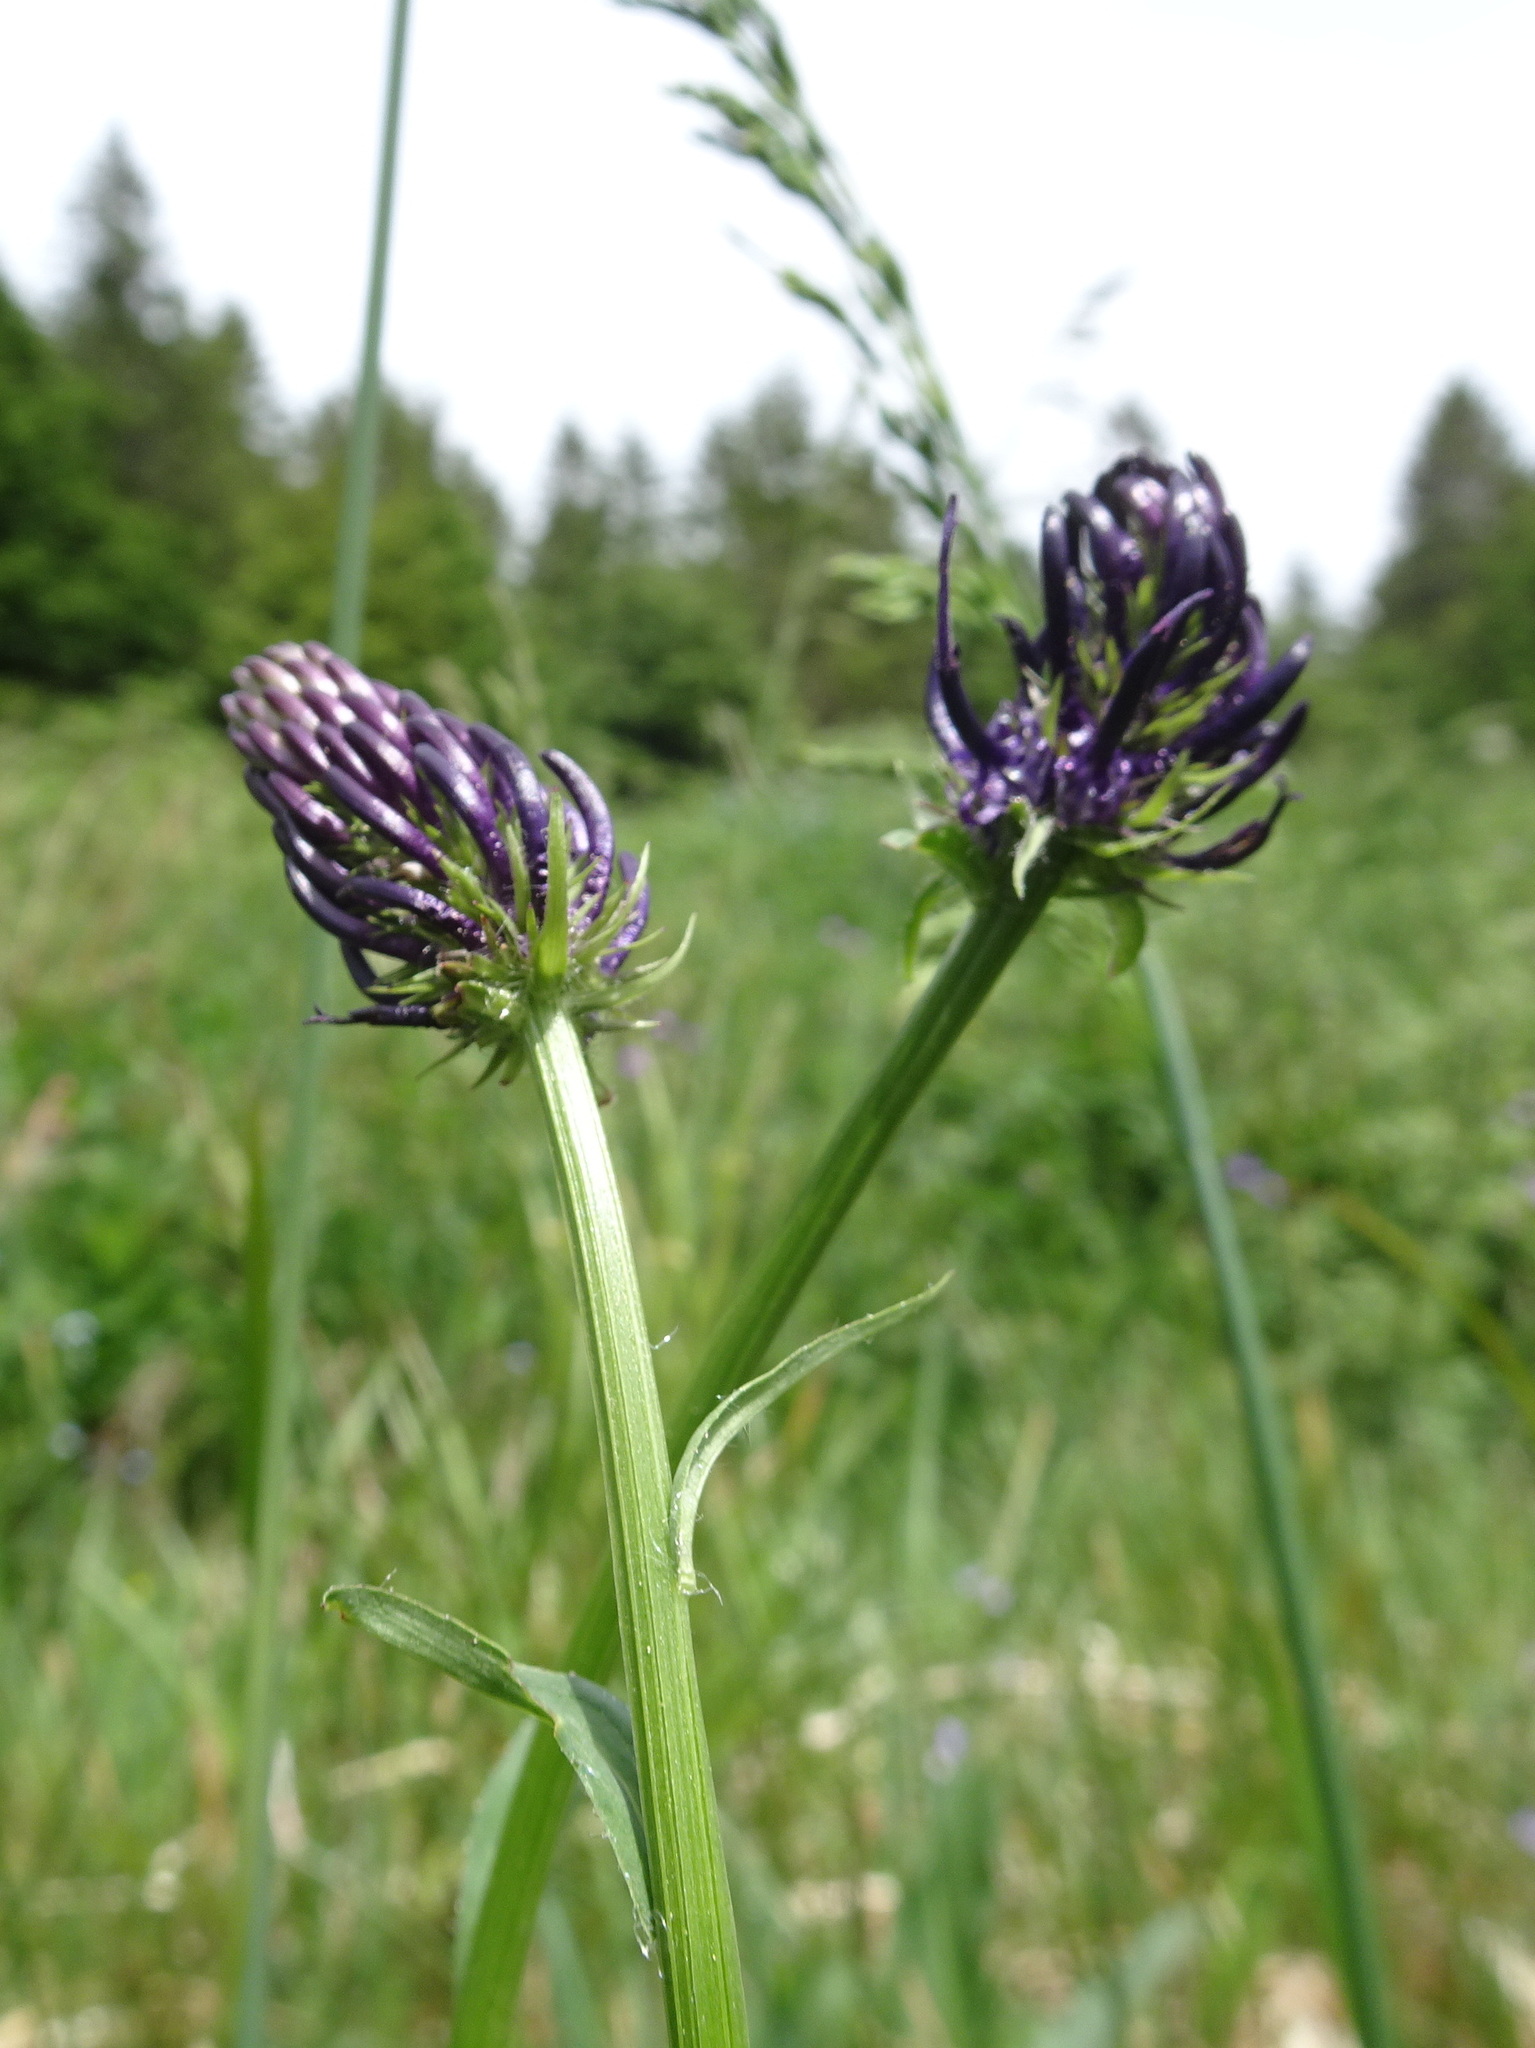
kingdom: Plantae
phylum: Tracheophyta
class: Magnoliopsida
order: Asterales
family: Campanulaceae
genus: Phyteuma
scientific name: Phyteuma nigrum
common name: Black rampion
